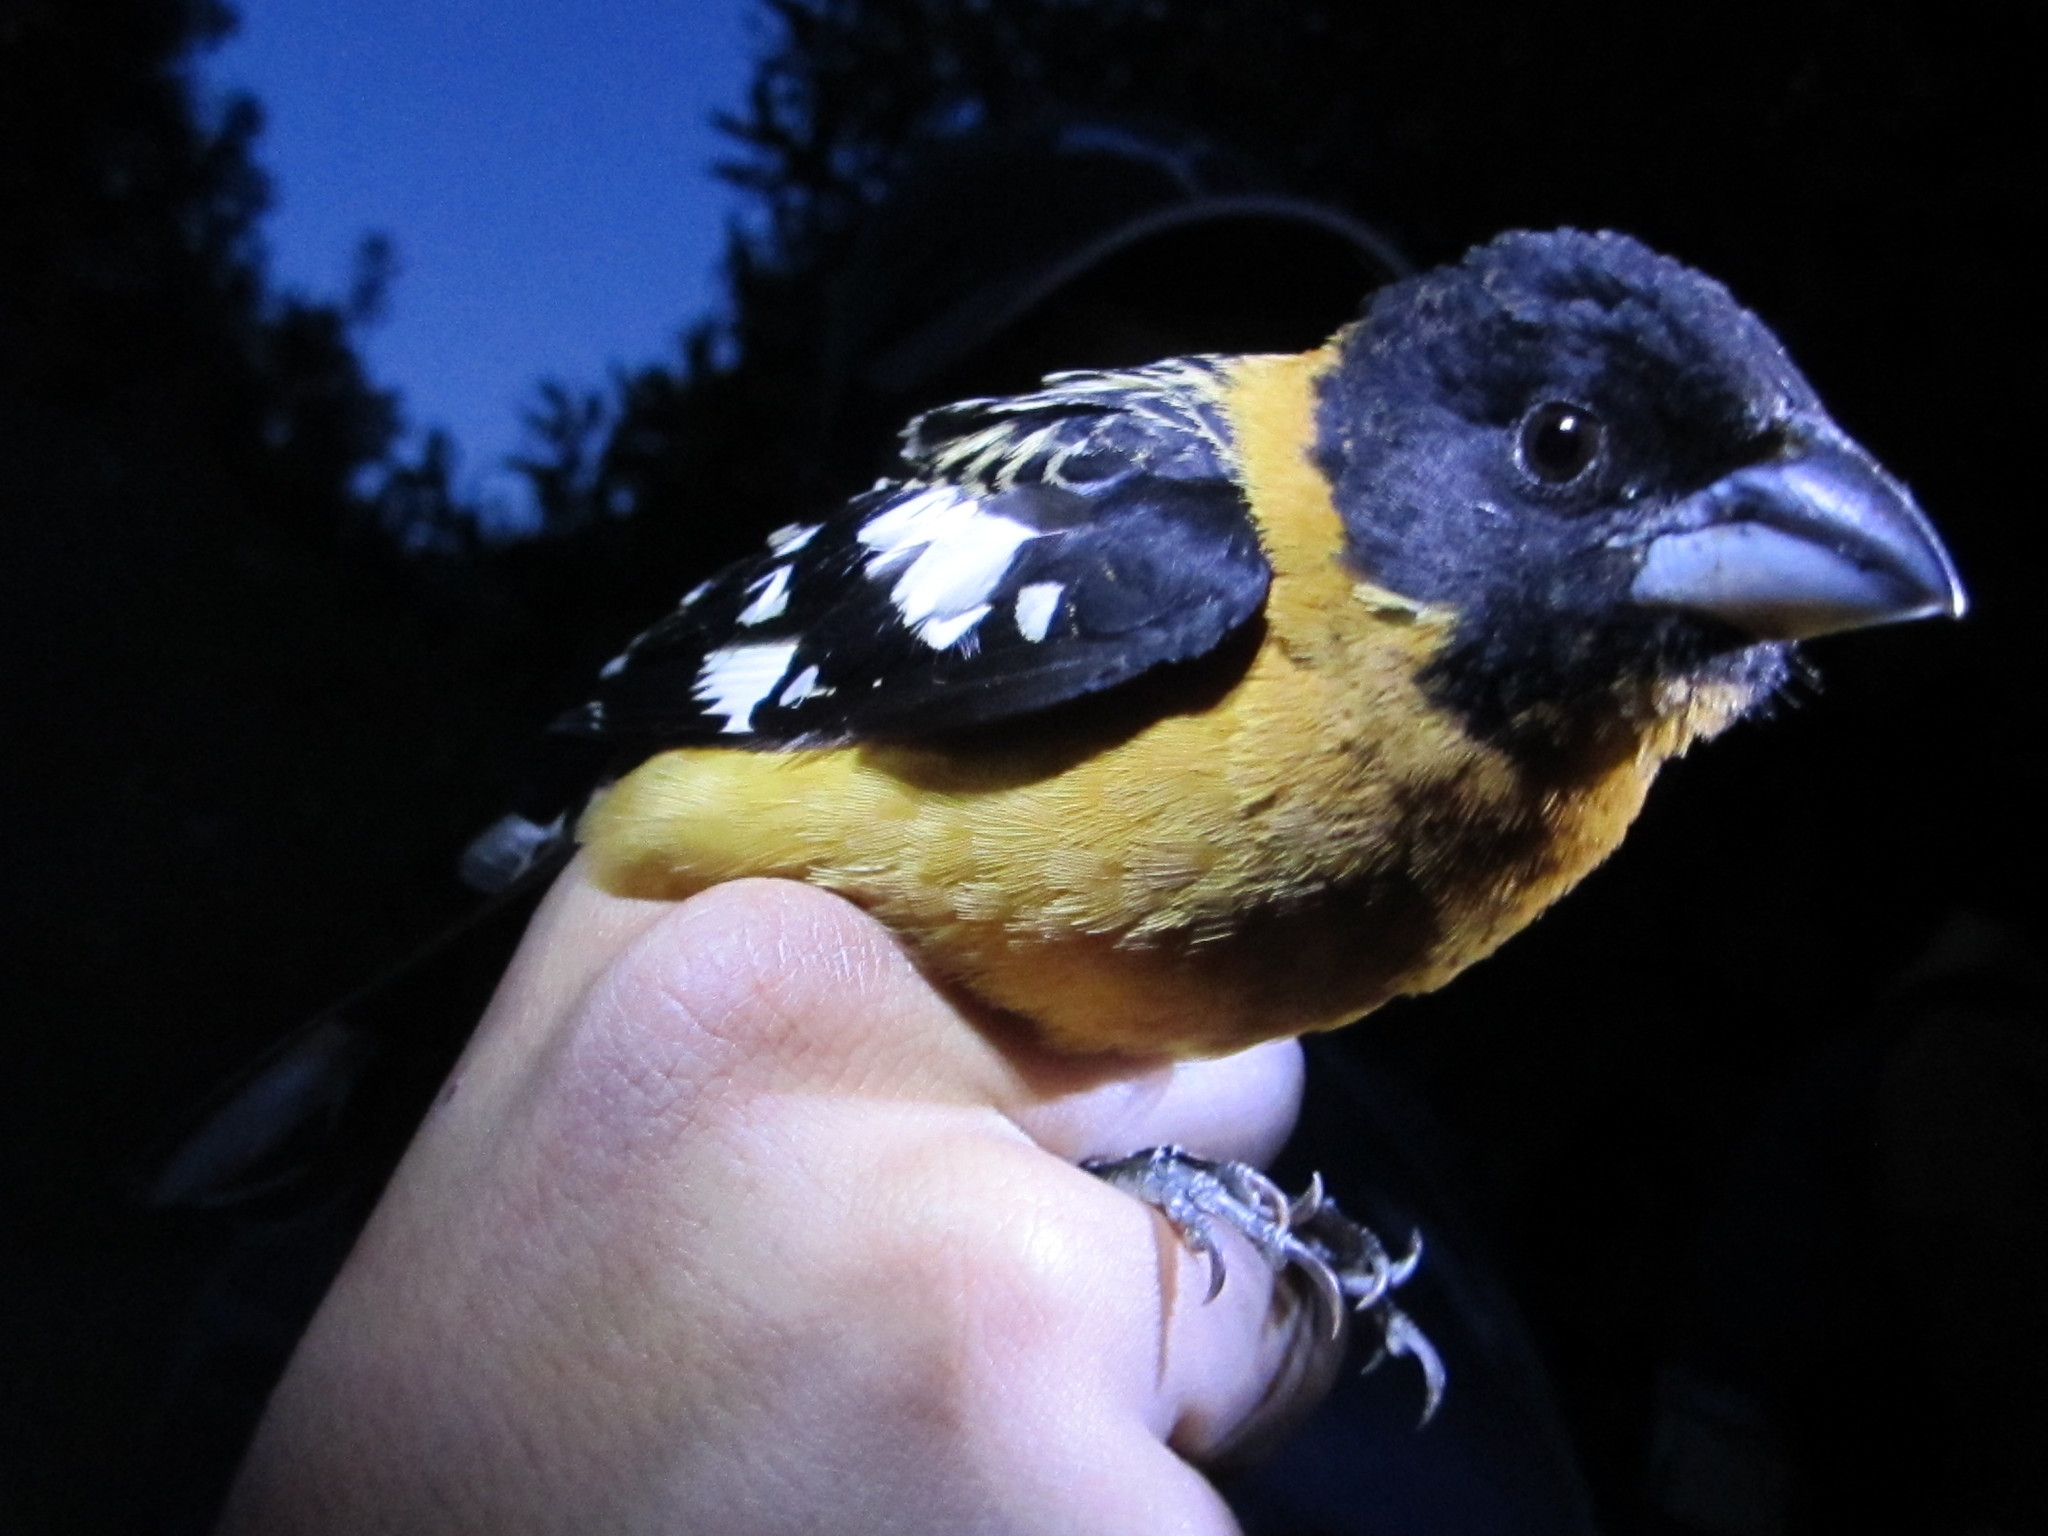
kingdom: Animalia
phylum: Chordata
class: Aves
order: Passeriformes
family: Cardinalidae
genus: Pheucticus
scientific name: Pheucticus melanocephalus
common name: Black-headed grosbeak
